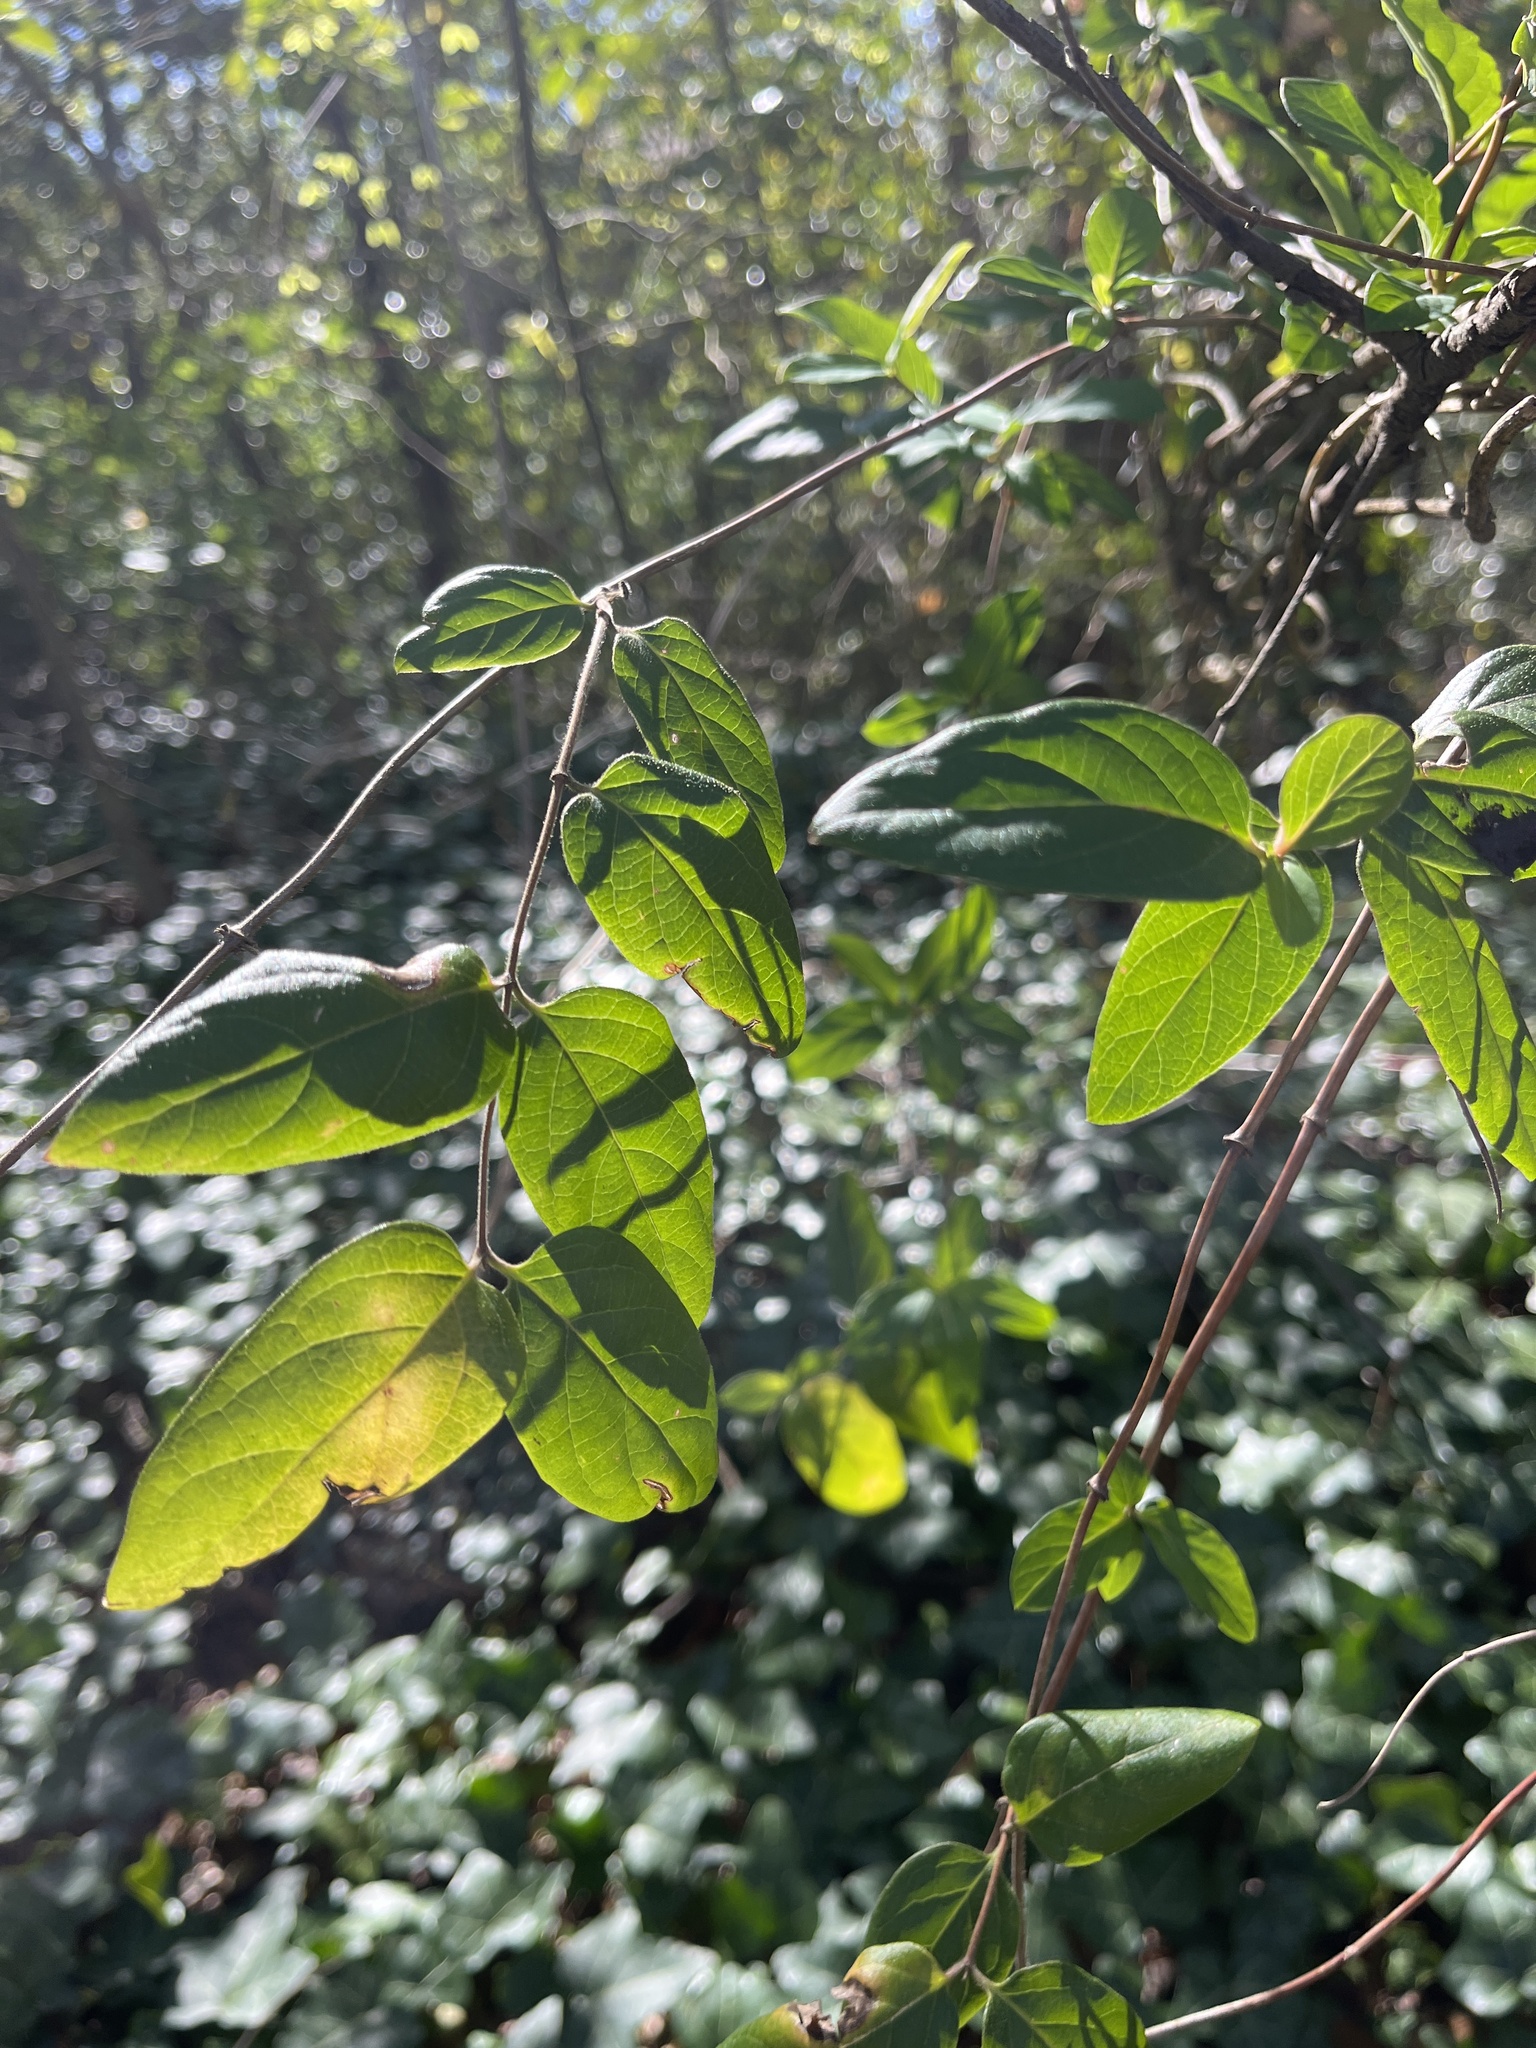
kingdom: Plantae
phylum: Tracheophyta
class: Magnoliopsida
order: Dipsacales
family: Caprifoliaceae
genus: Lonicera
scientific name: Lonicera japonica
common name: Japanese honeysuckle
